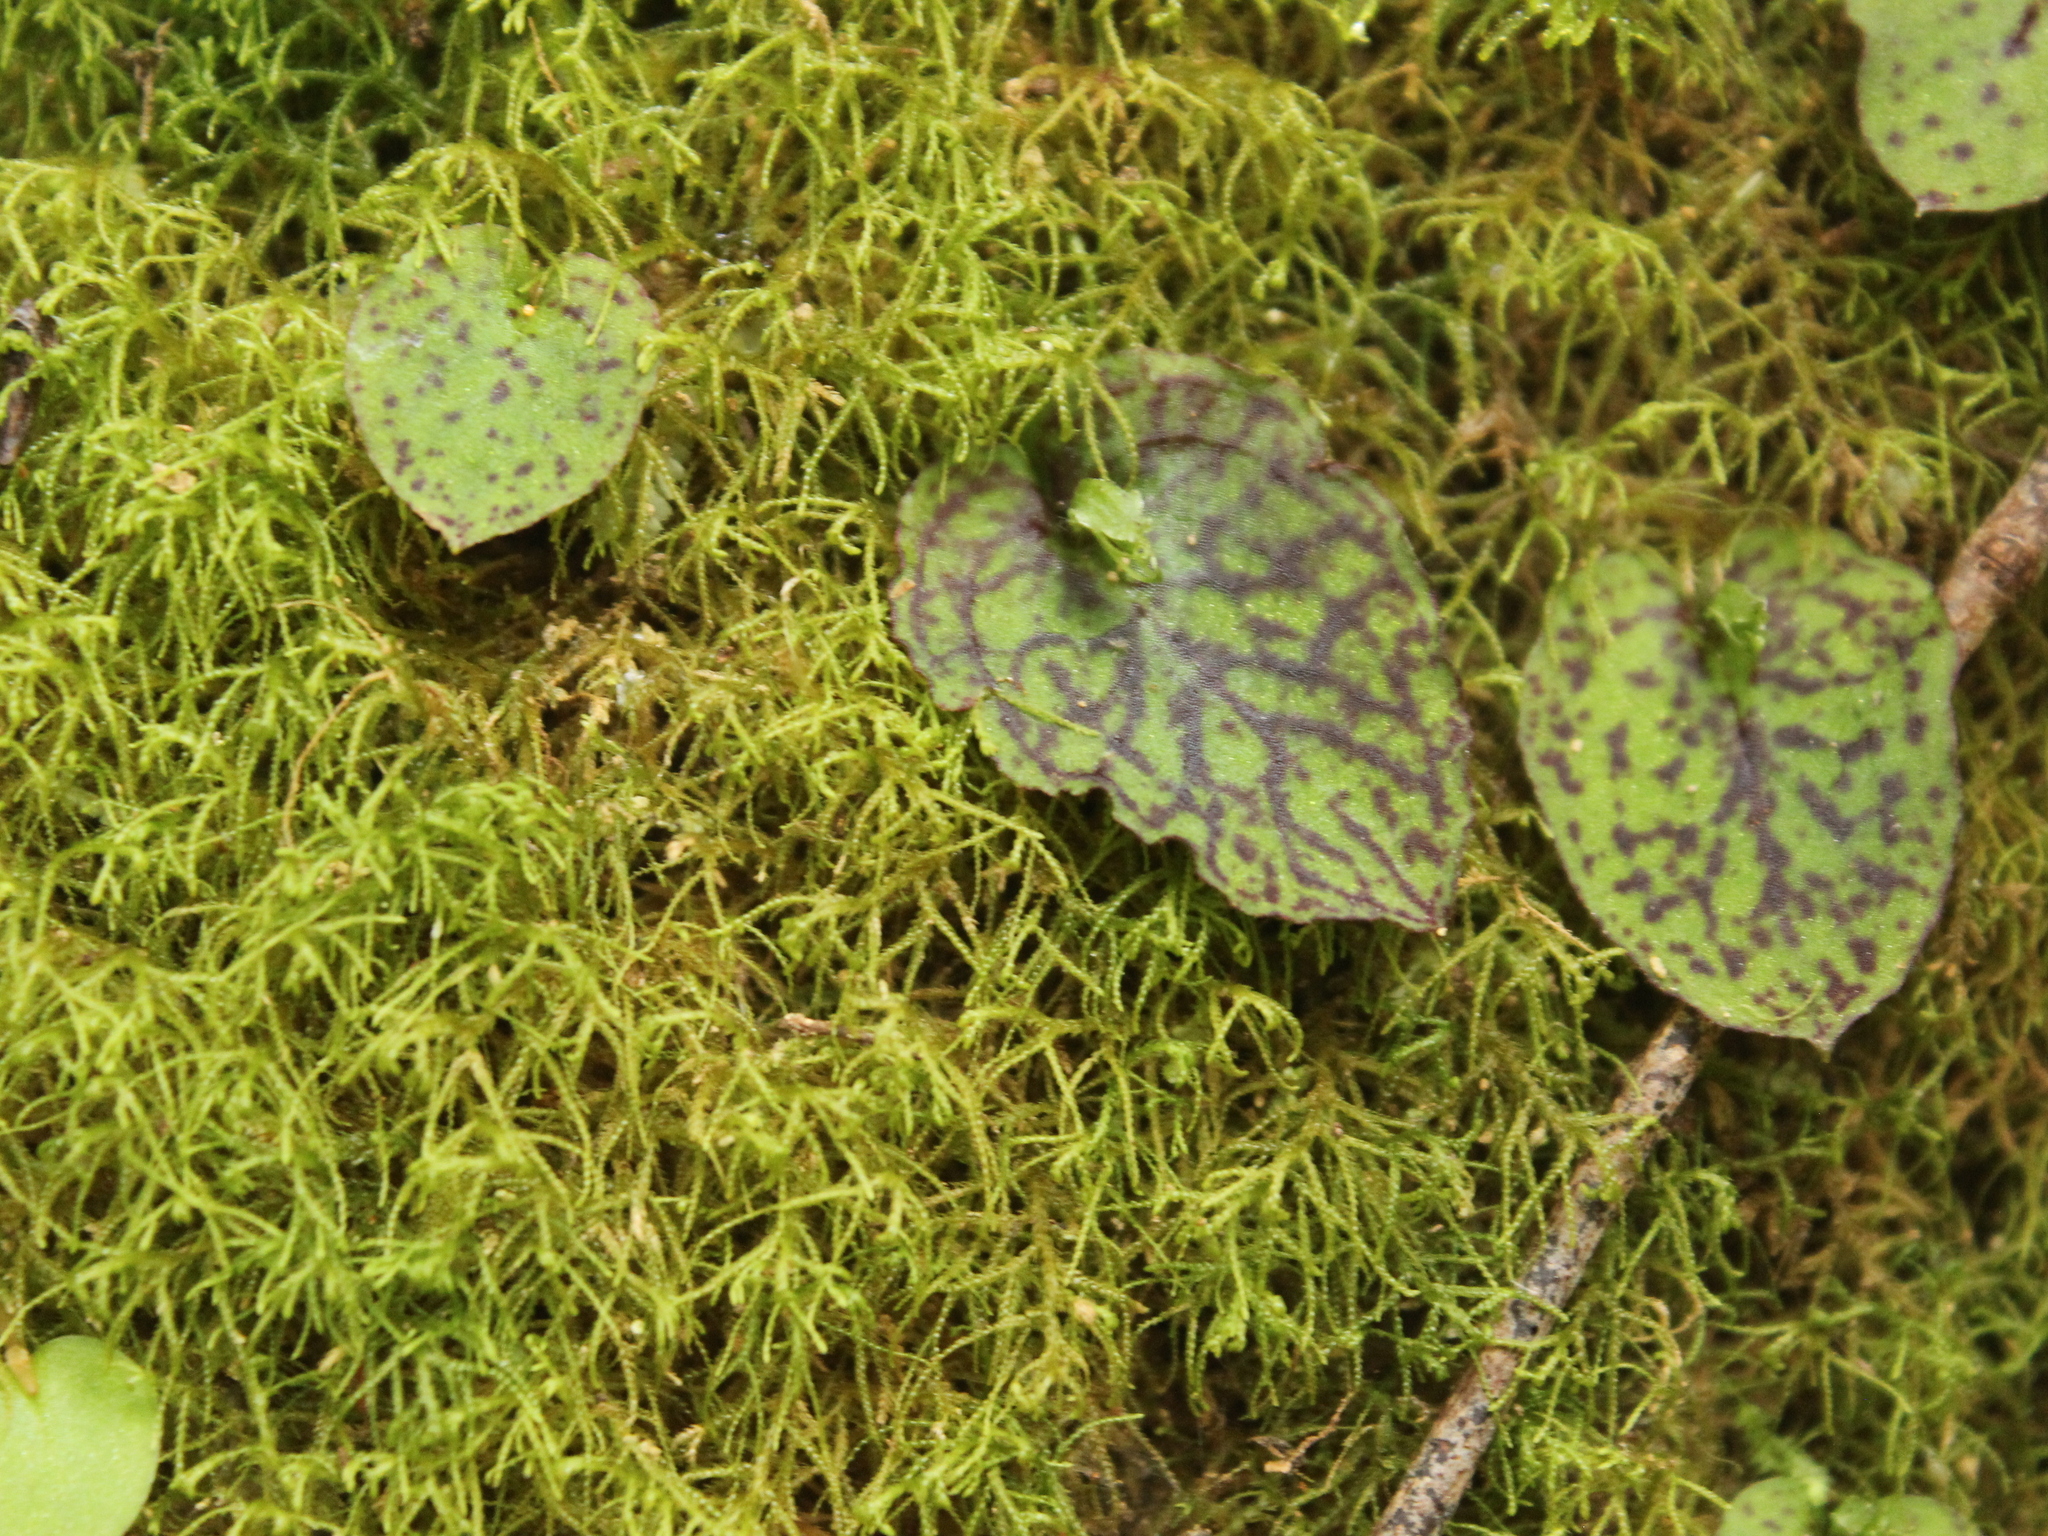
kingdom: Plantae
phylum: Tracheophyta
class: Liliopsida
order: Asparagales
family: Orchidaceae
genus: Corybas
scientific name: Corybas oblongus
